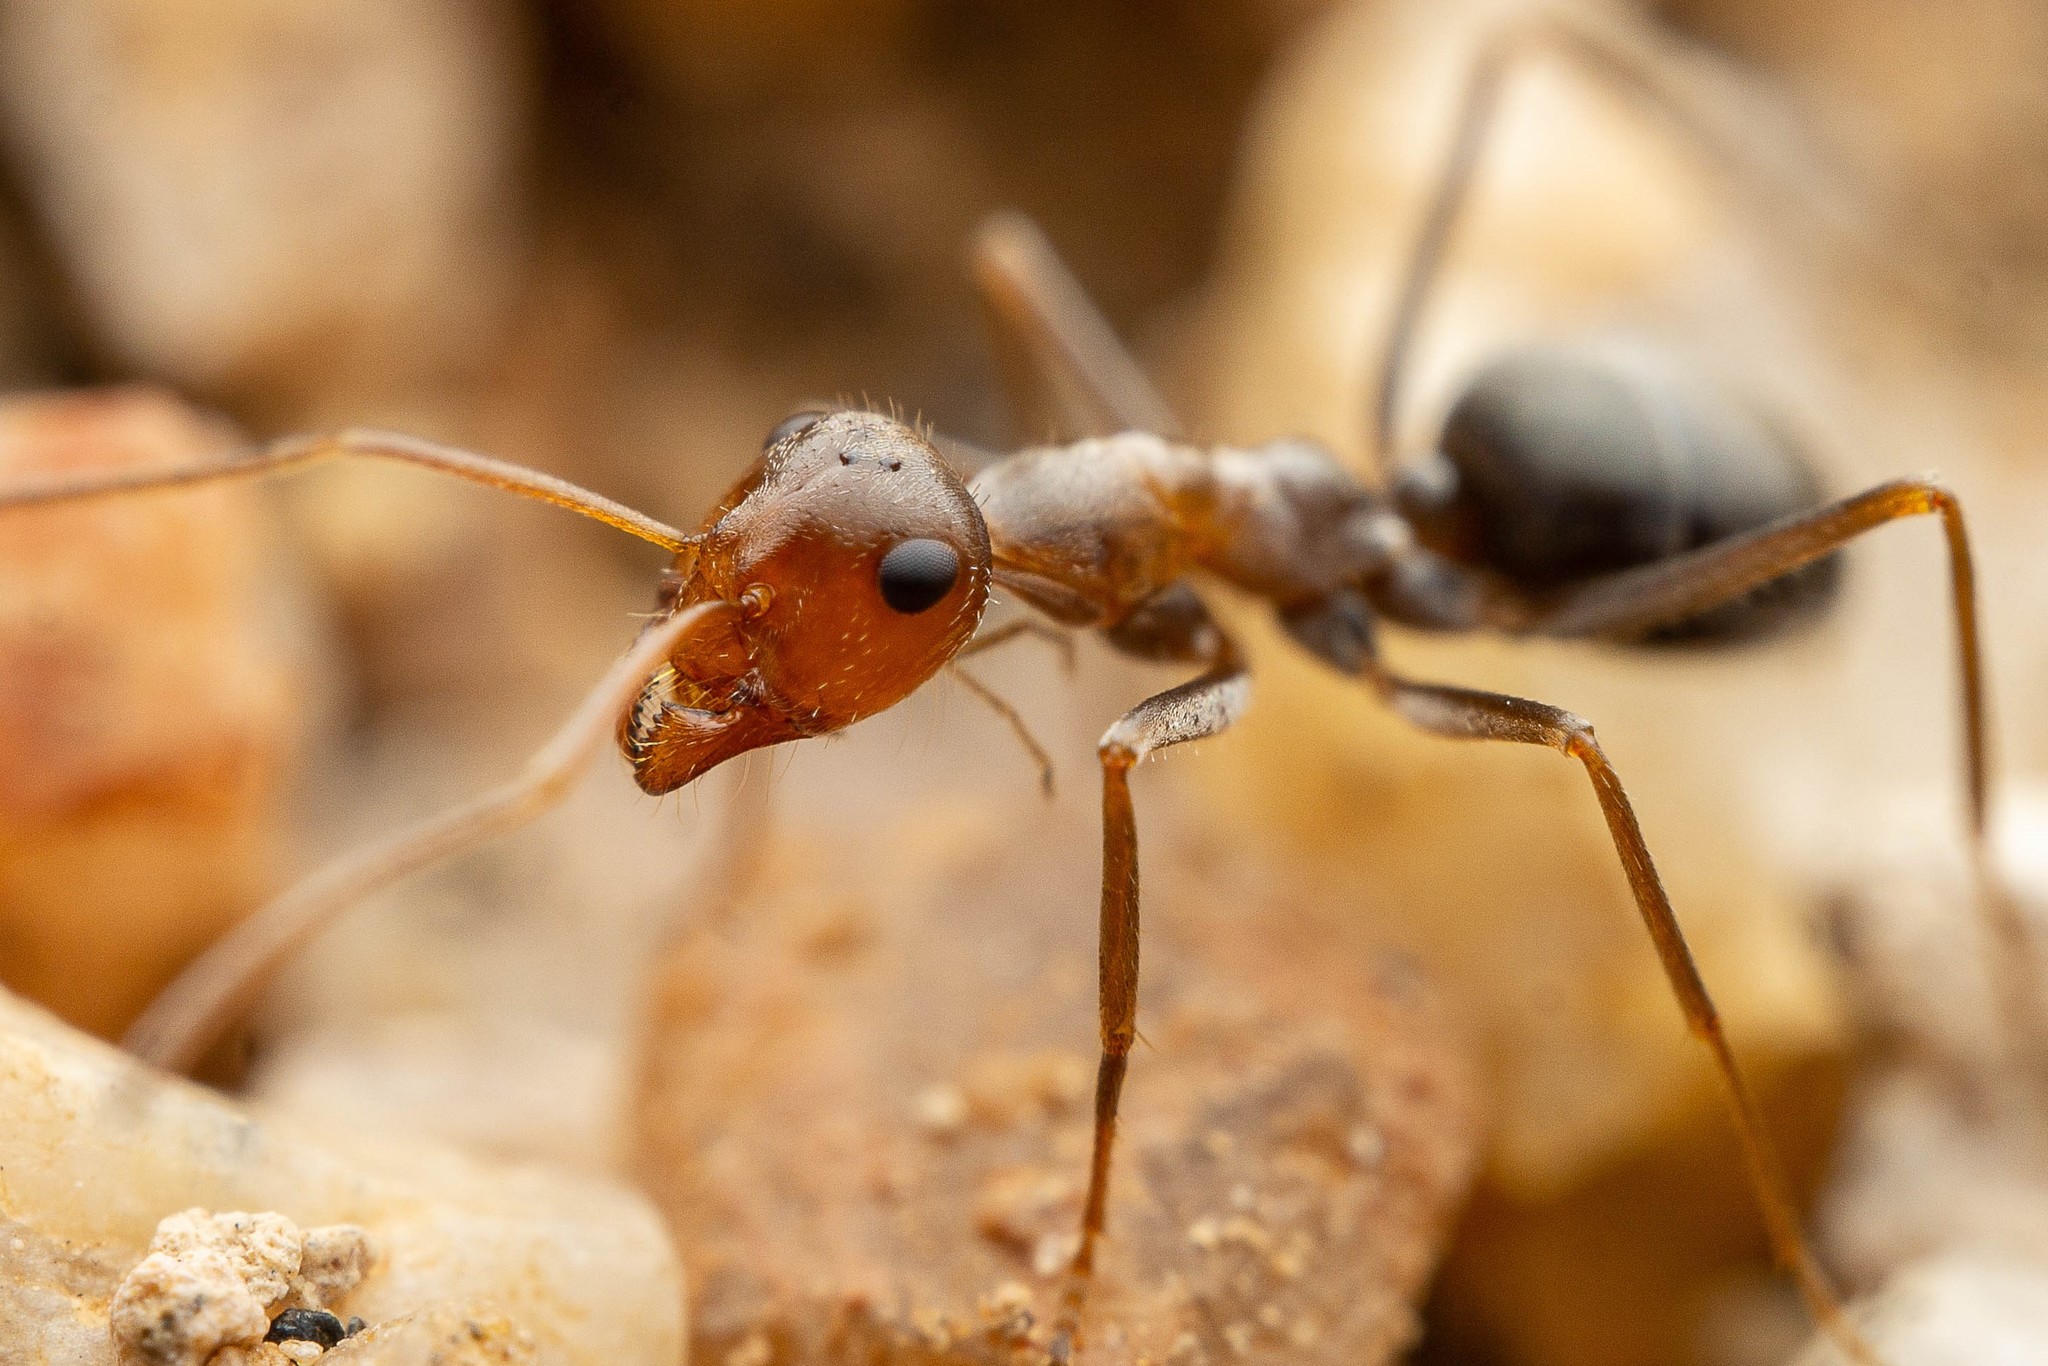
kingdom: Animalia
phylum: Arthropoda
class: Insecta
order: Hymenoptera
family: Formicidae
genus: Myrmecocystus
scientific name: Myrmecocystus flaviceps
